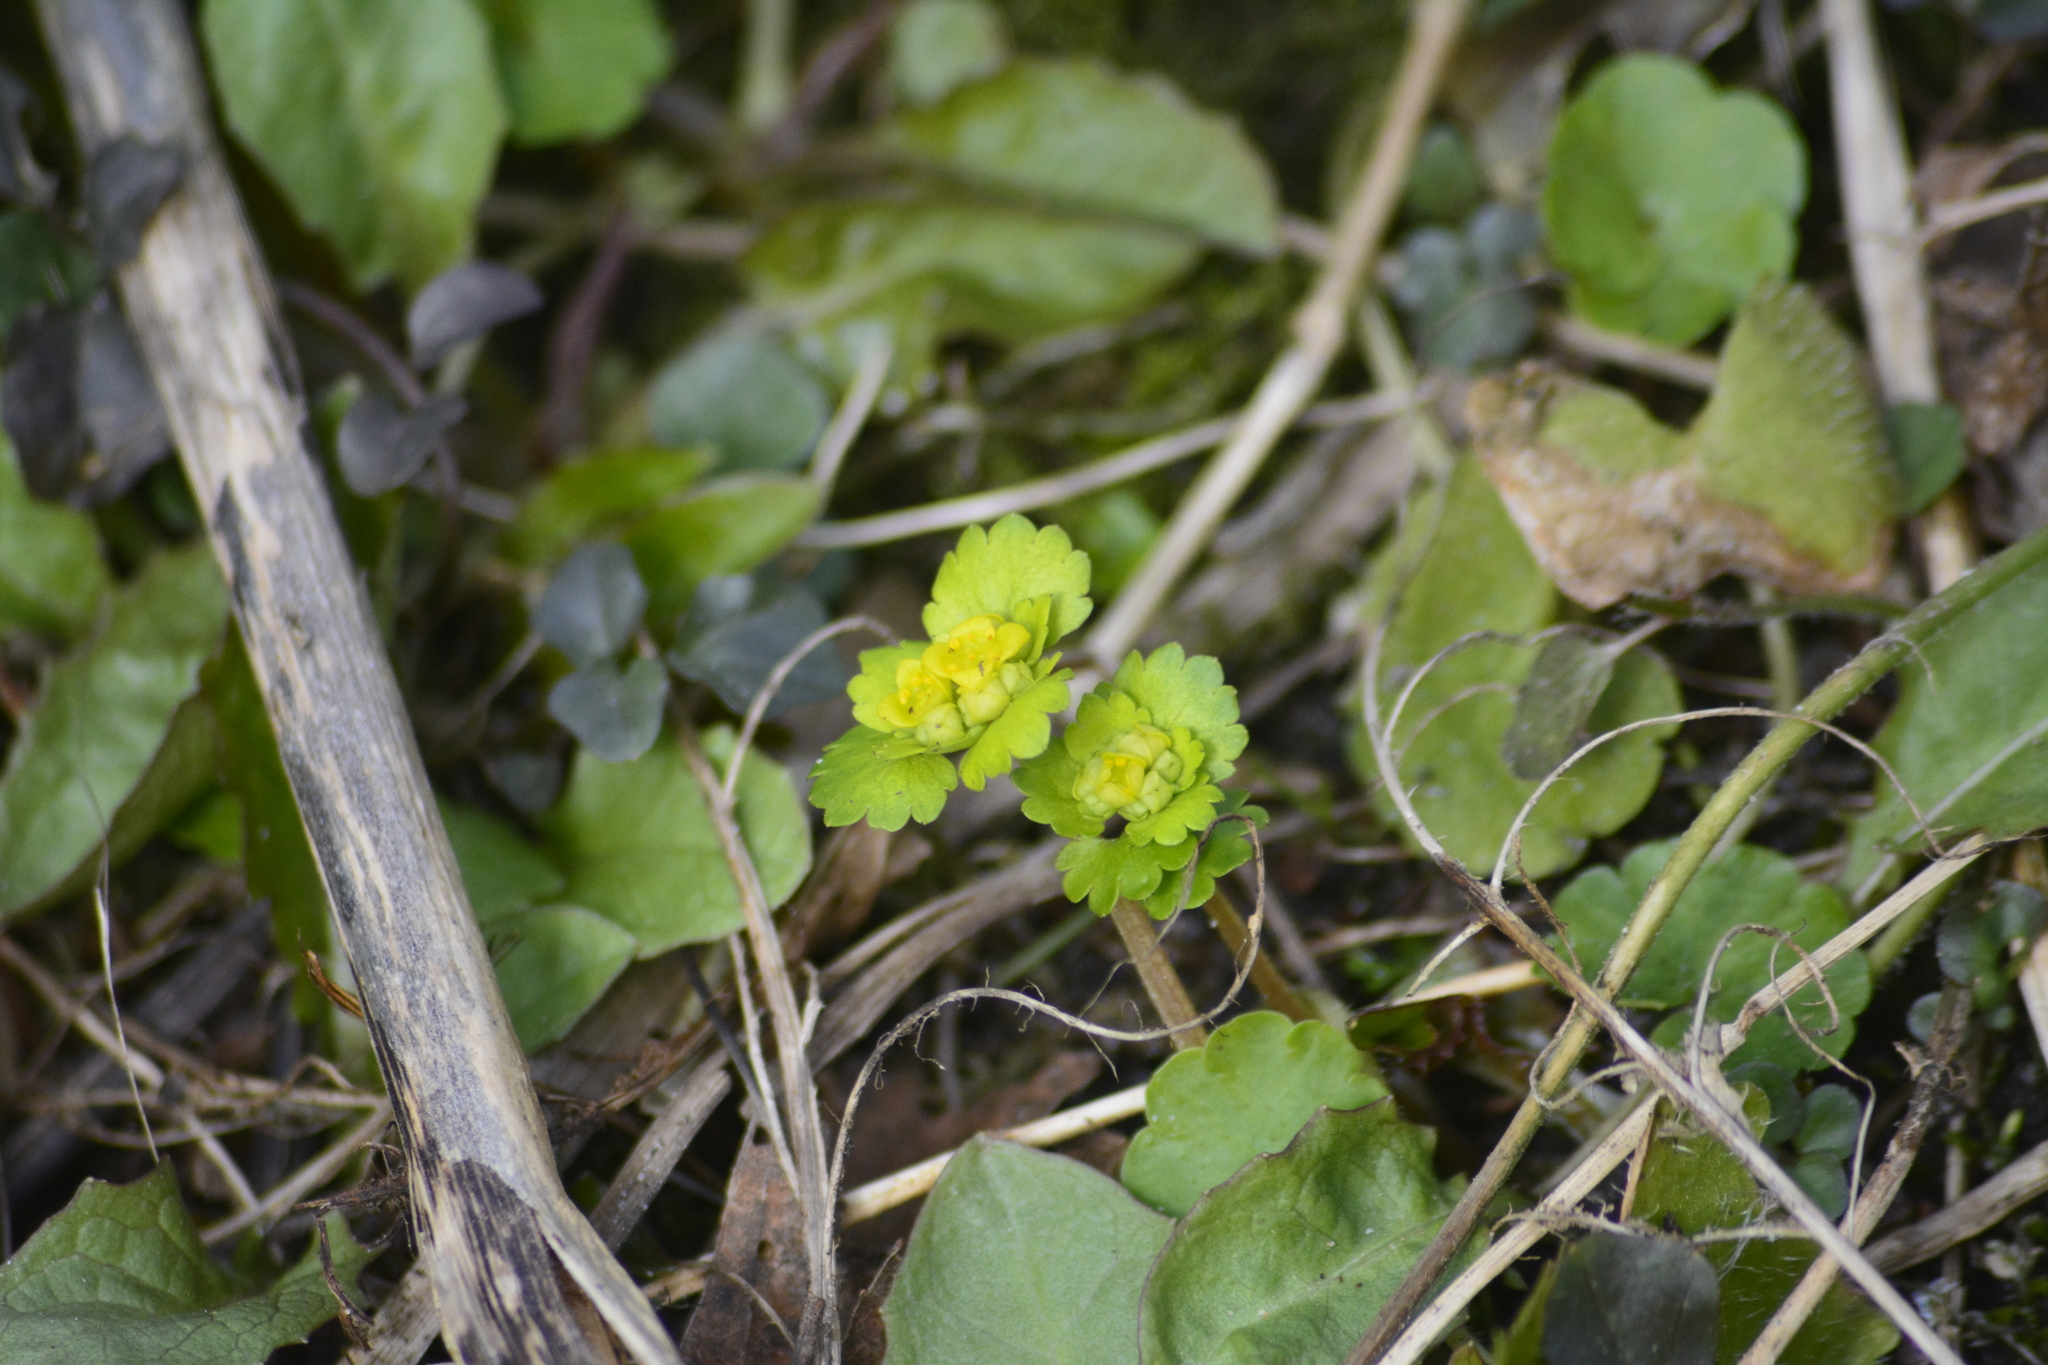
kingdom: Plantae
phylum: Tracheophyta
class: Magnoliopsida
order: Saxifragales
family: Saxifragaceae
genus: Chrysosplenium
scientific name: Chrysosplenium alternifolium
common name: Alternate-leaved golden-saxifrage
